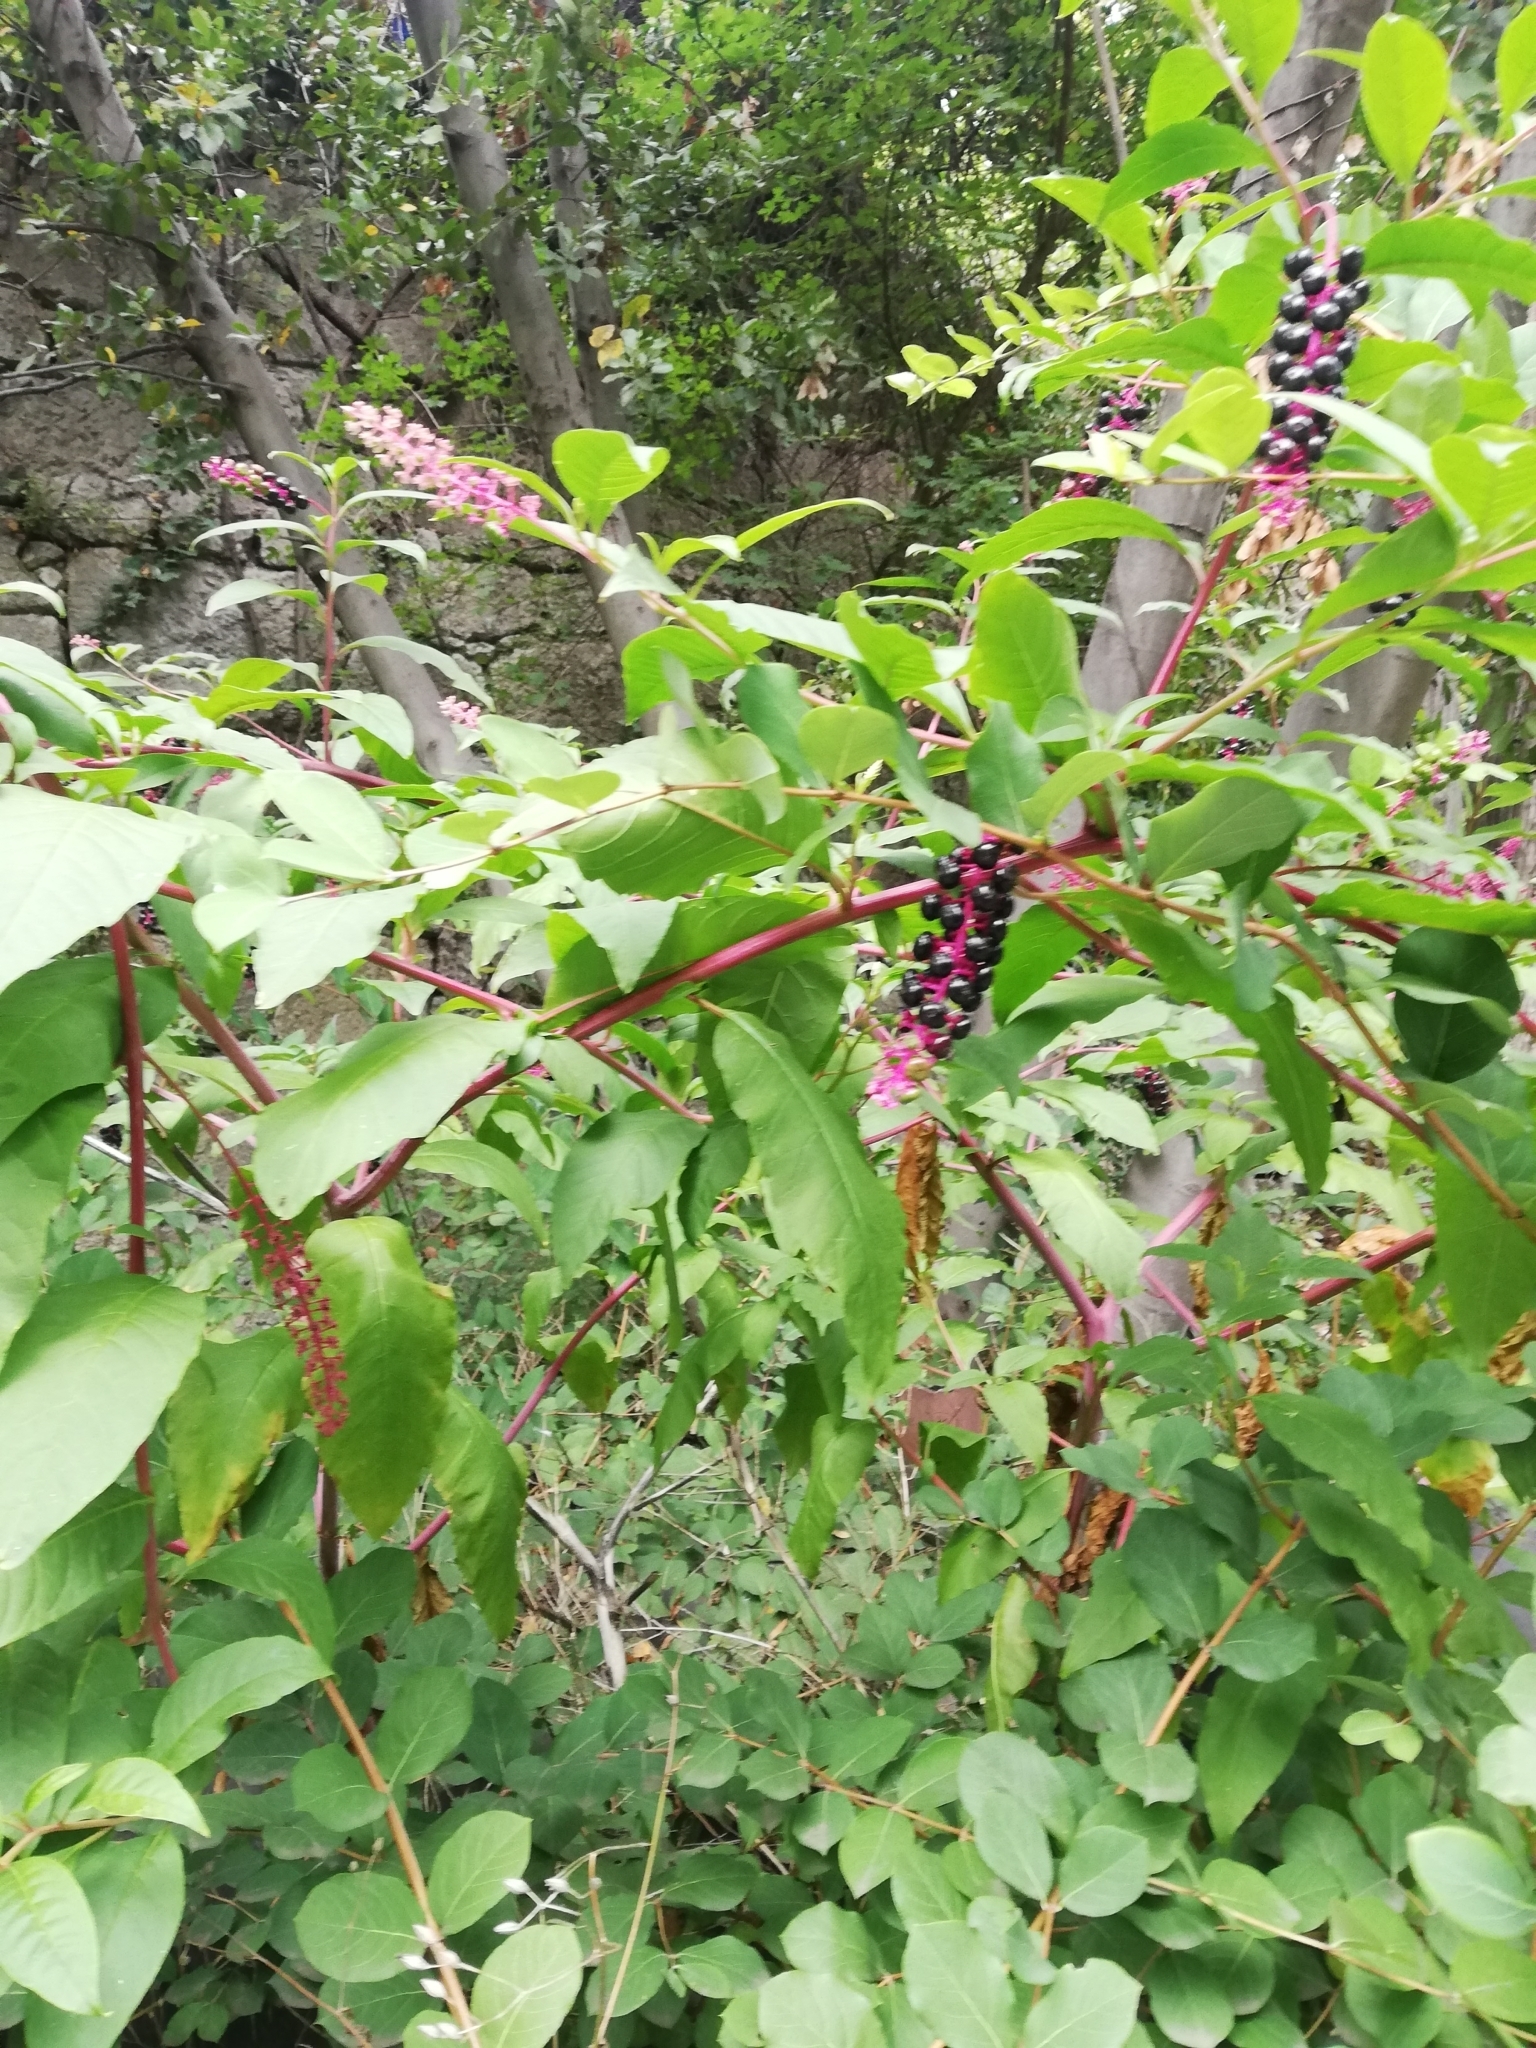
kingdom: Plantae
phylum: Tracheophyta
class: Magnoliopsida
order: Caryophyllales
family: Phytolaccaceae
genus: Phytolacca
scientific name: Phytolacca americana
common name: American pokeweed
